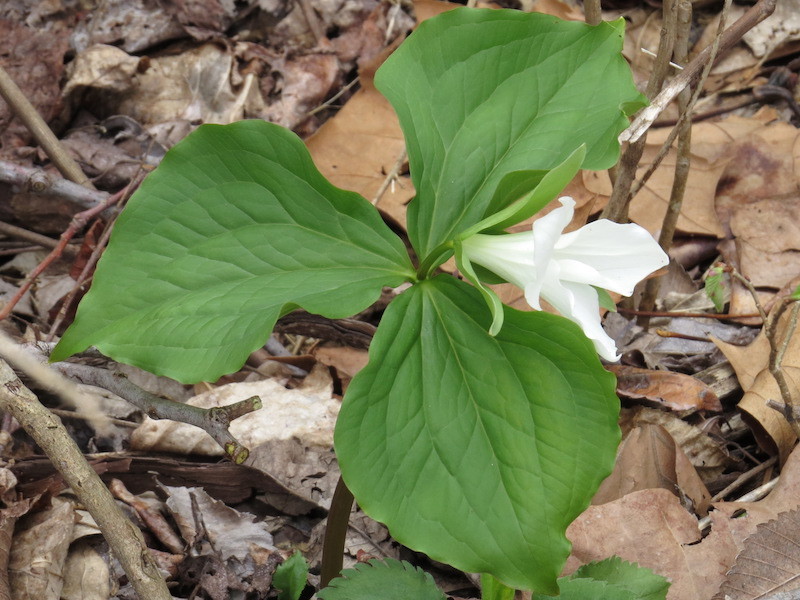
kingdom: Plantae
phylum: Tracheophyta
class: Liliopsida
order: Liliales
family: Melanthiaceae
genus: Trillium
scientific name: Trillium grandiflorum
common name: Great white trillium
